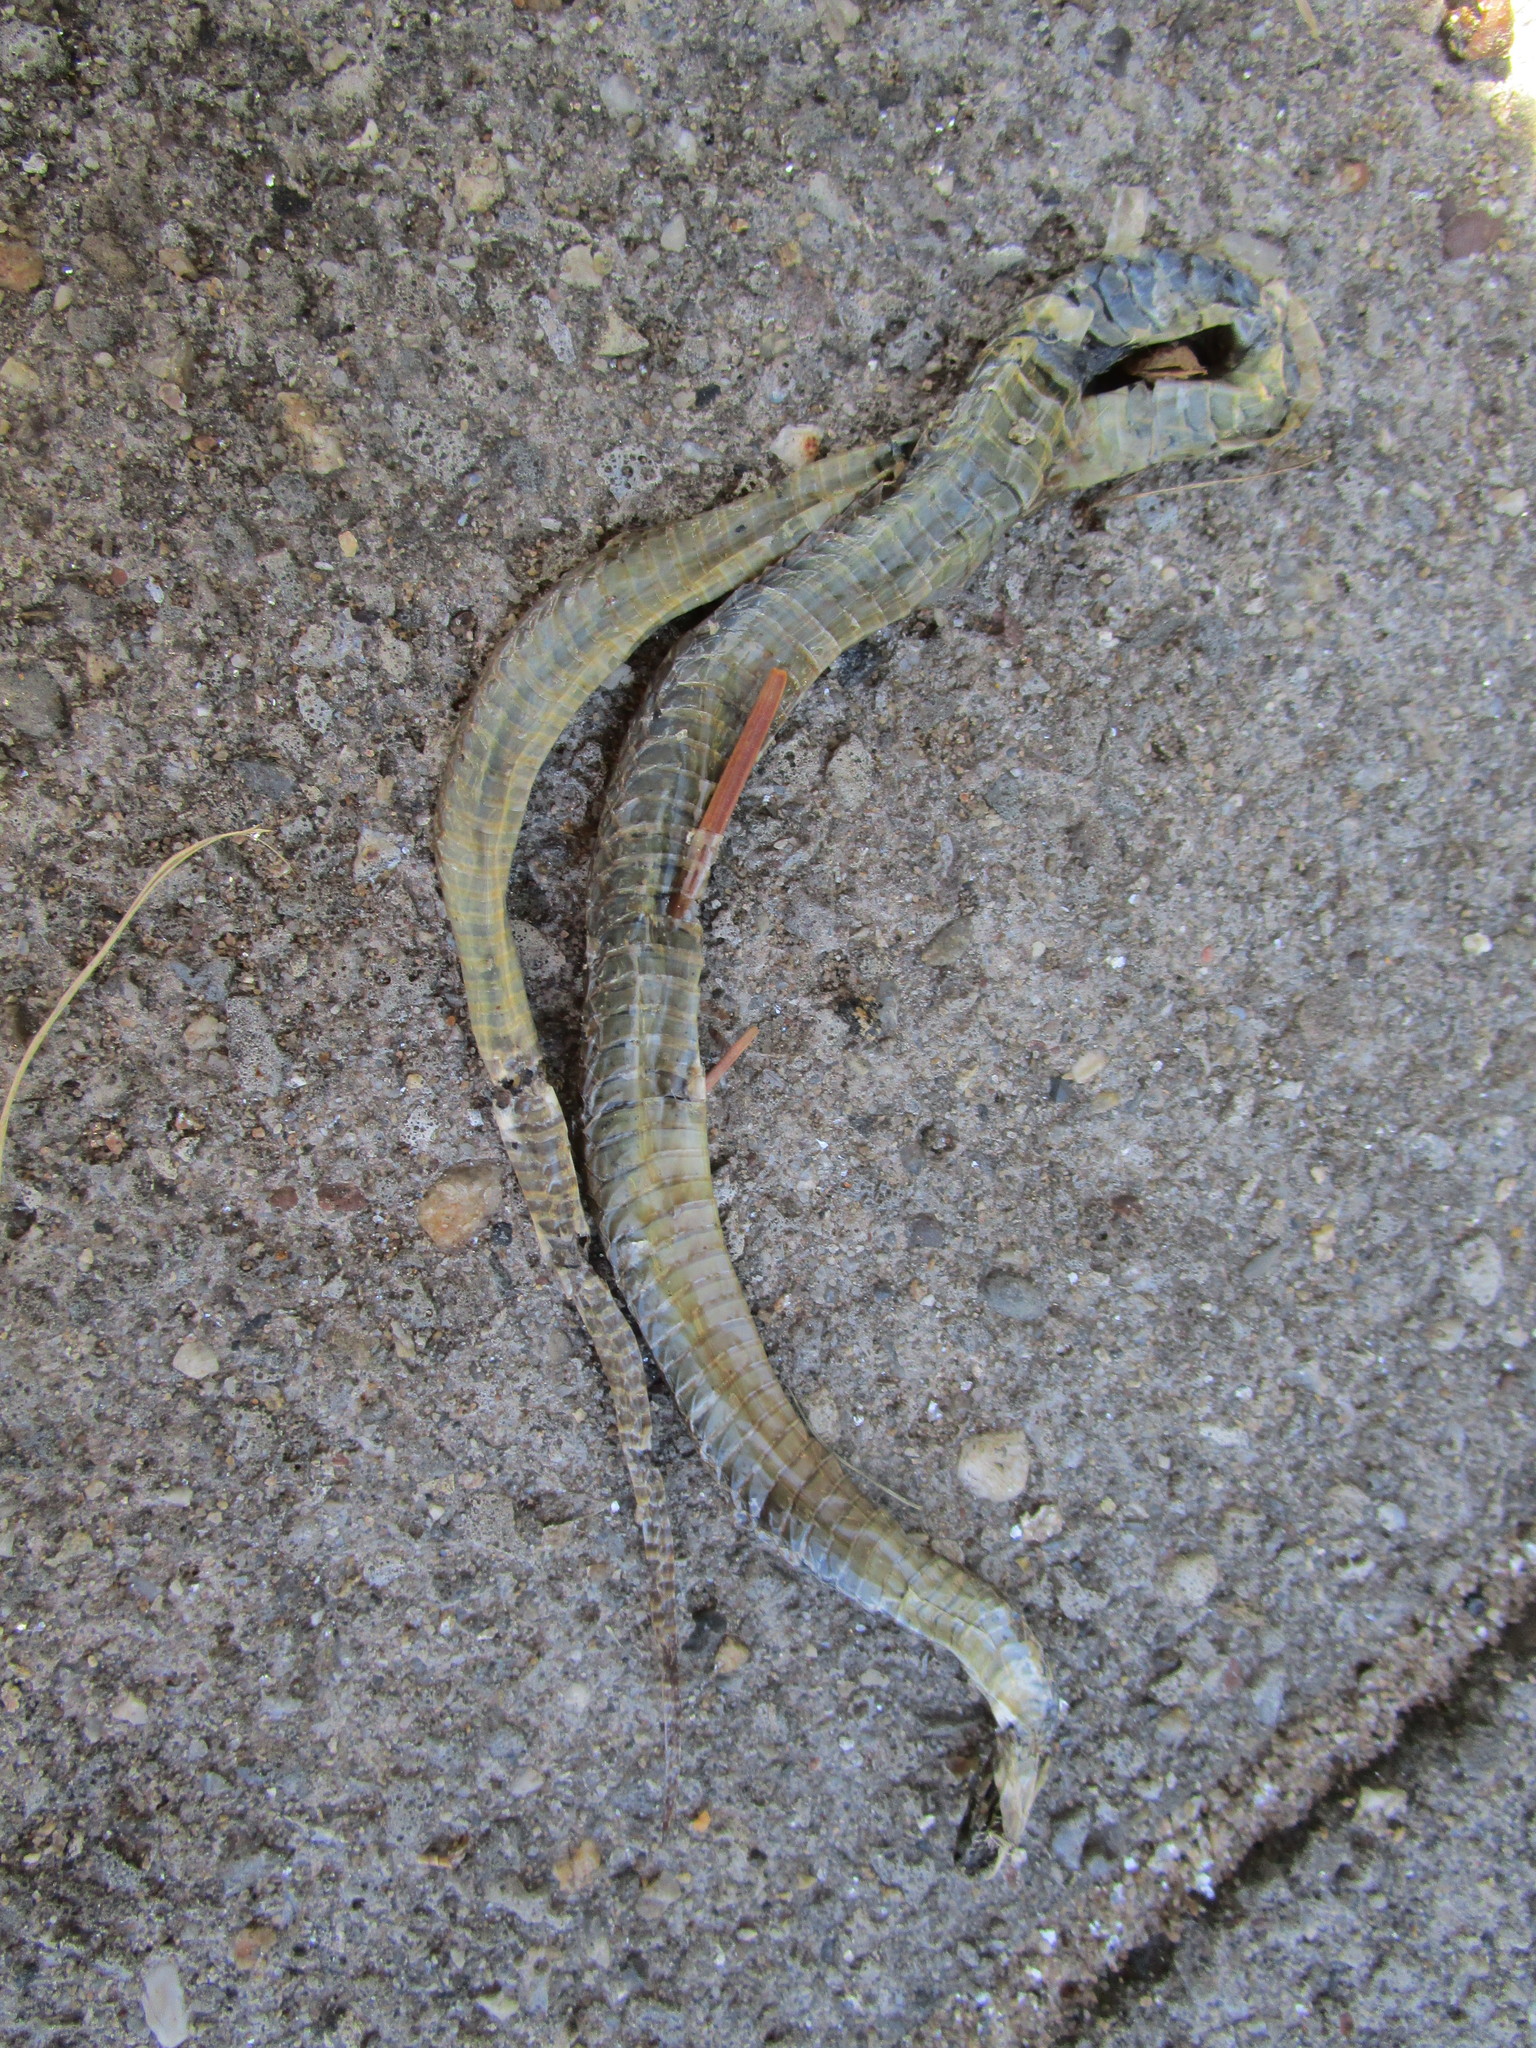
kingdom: Animalia
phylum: Chordata
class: Squamata
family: Colubridae
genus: Storeria
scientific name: Storeria dekayi
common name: (dekay’s) brown snake
